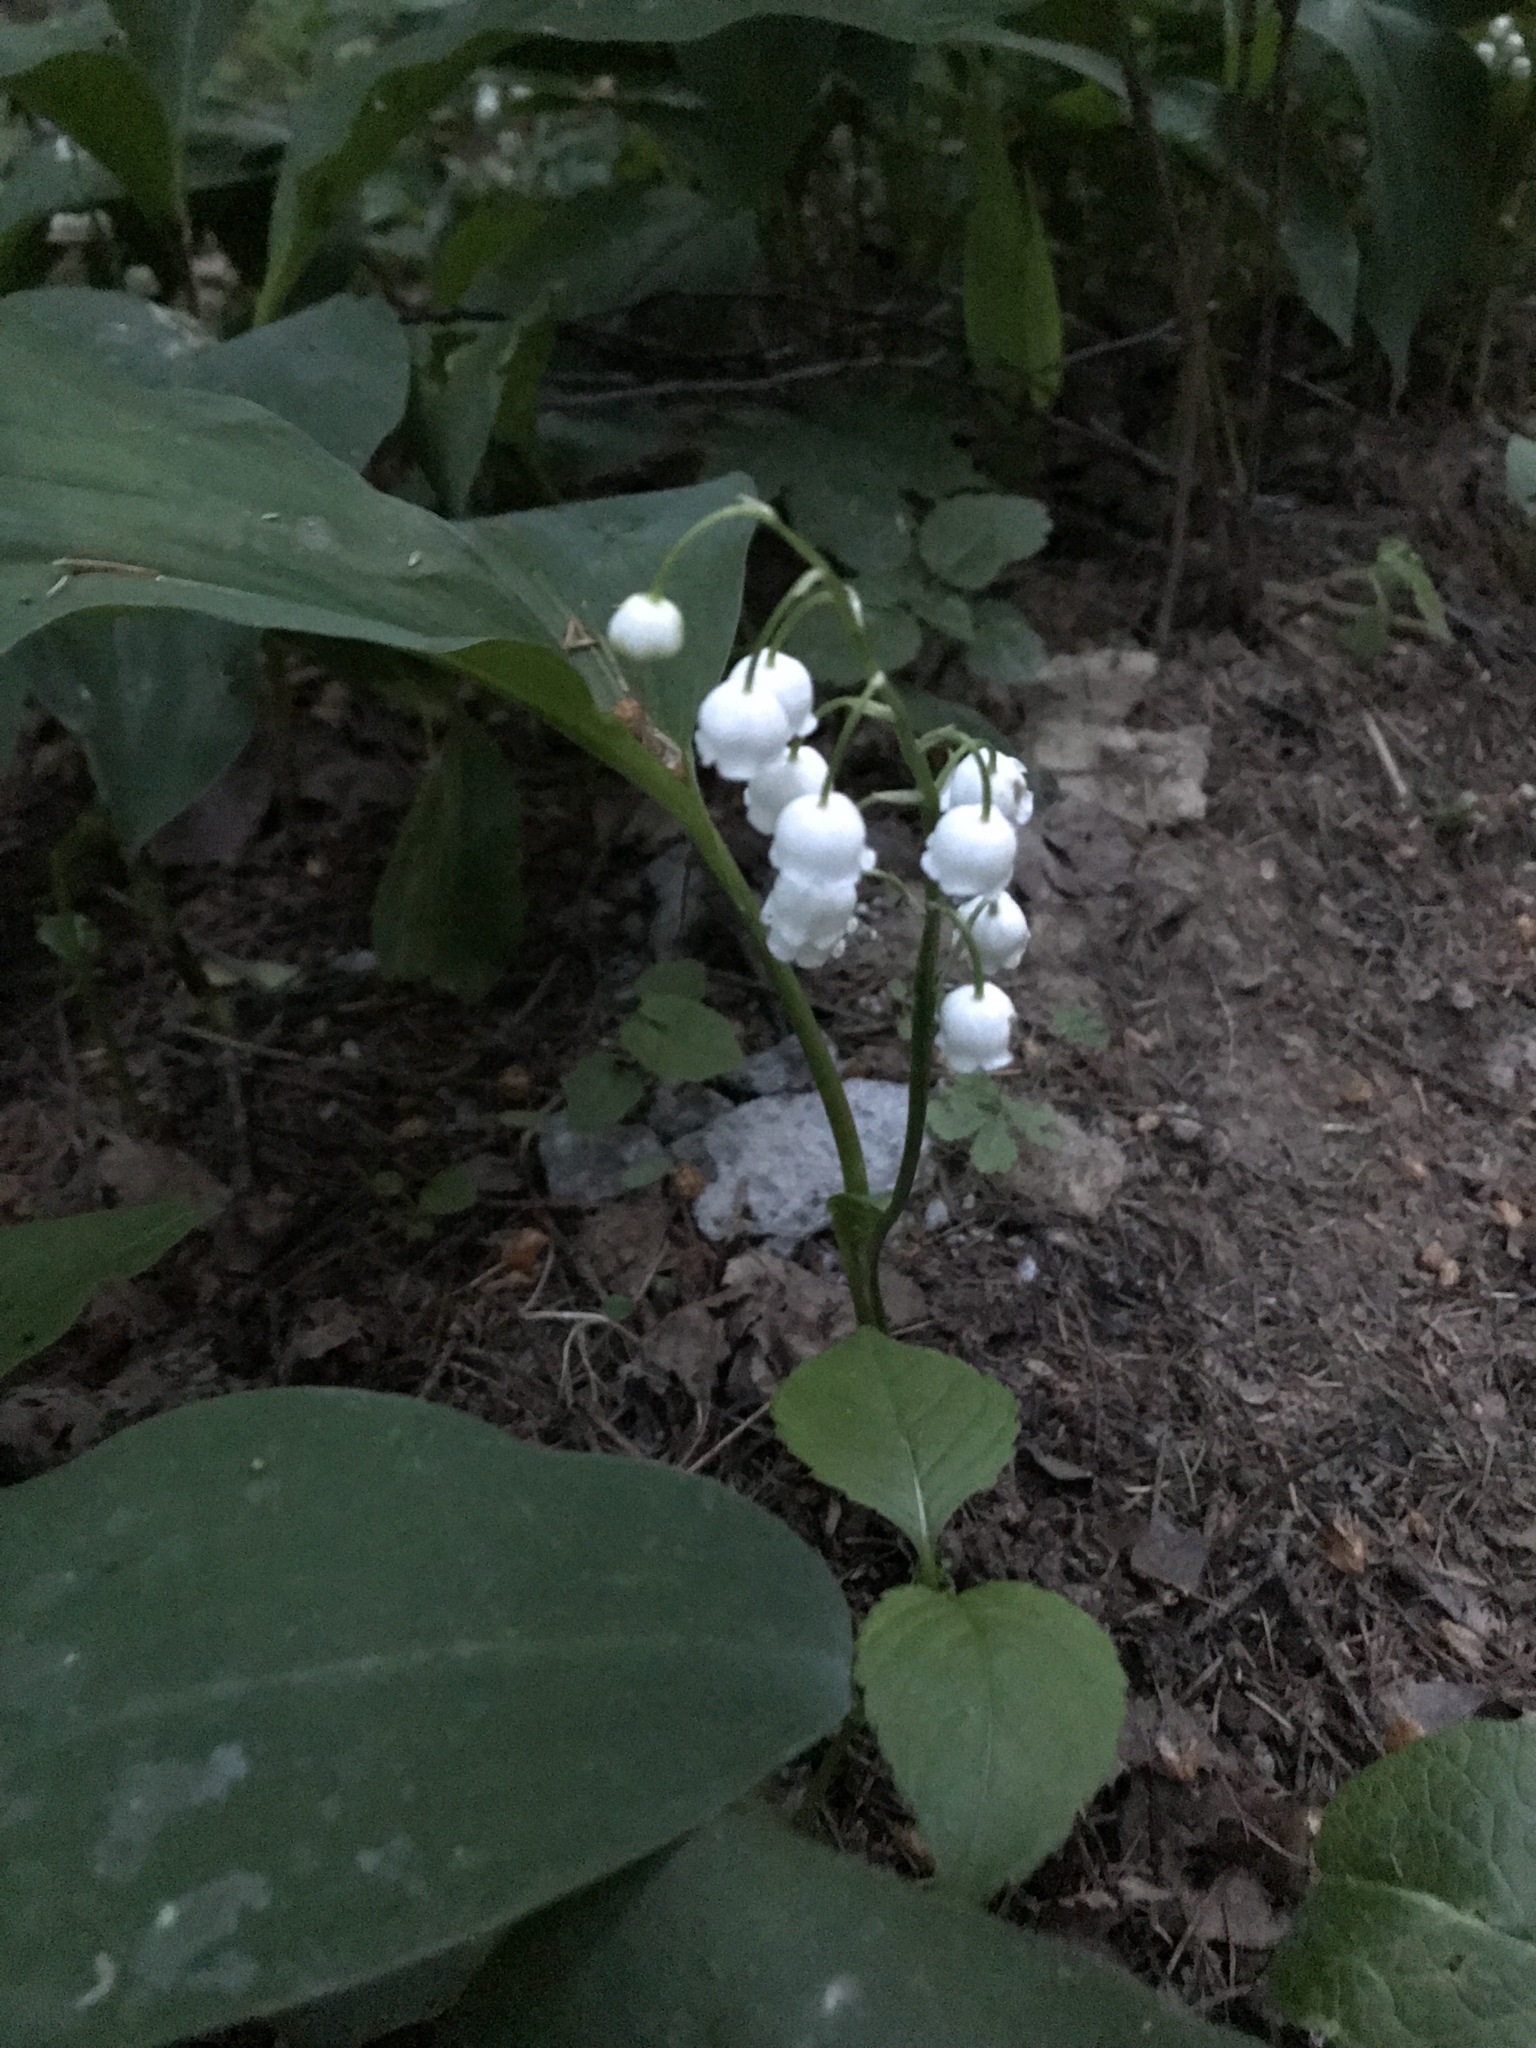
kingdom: Plantae
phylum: Tracheophyta
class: Liliopsida
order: Asparagales
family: Asparagaceae
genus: Convallaria
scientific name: Convallaria majalis
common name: Lily-of-the-valley
